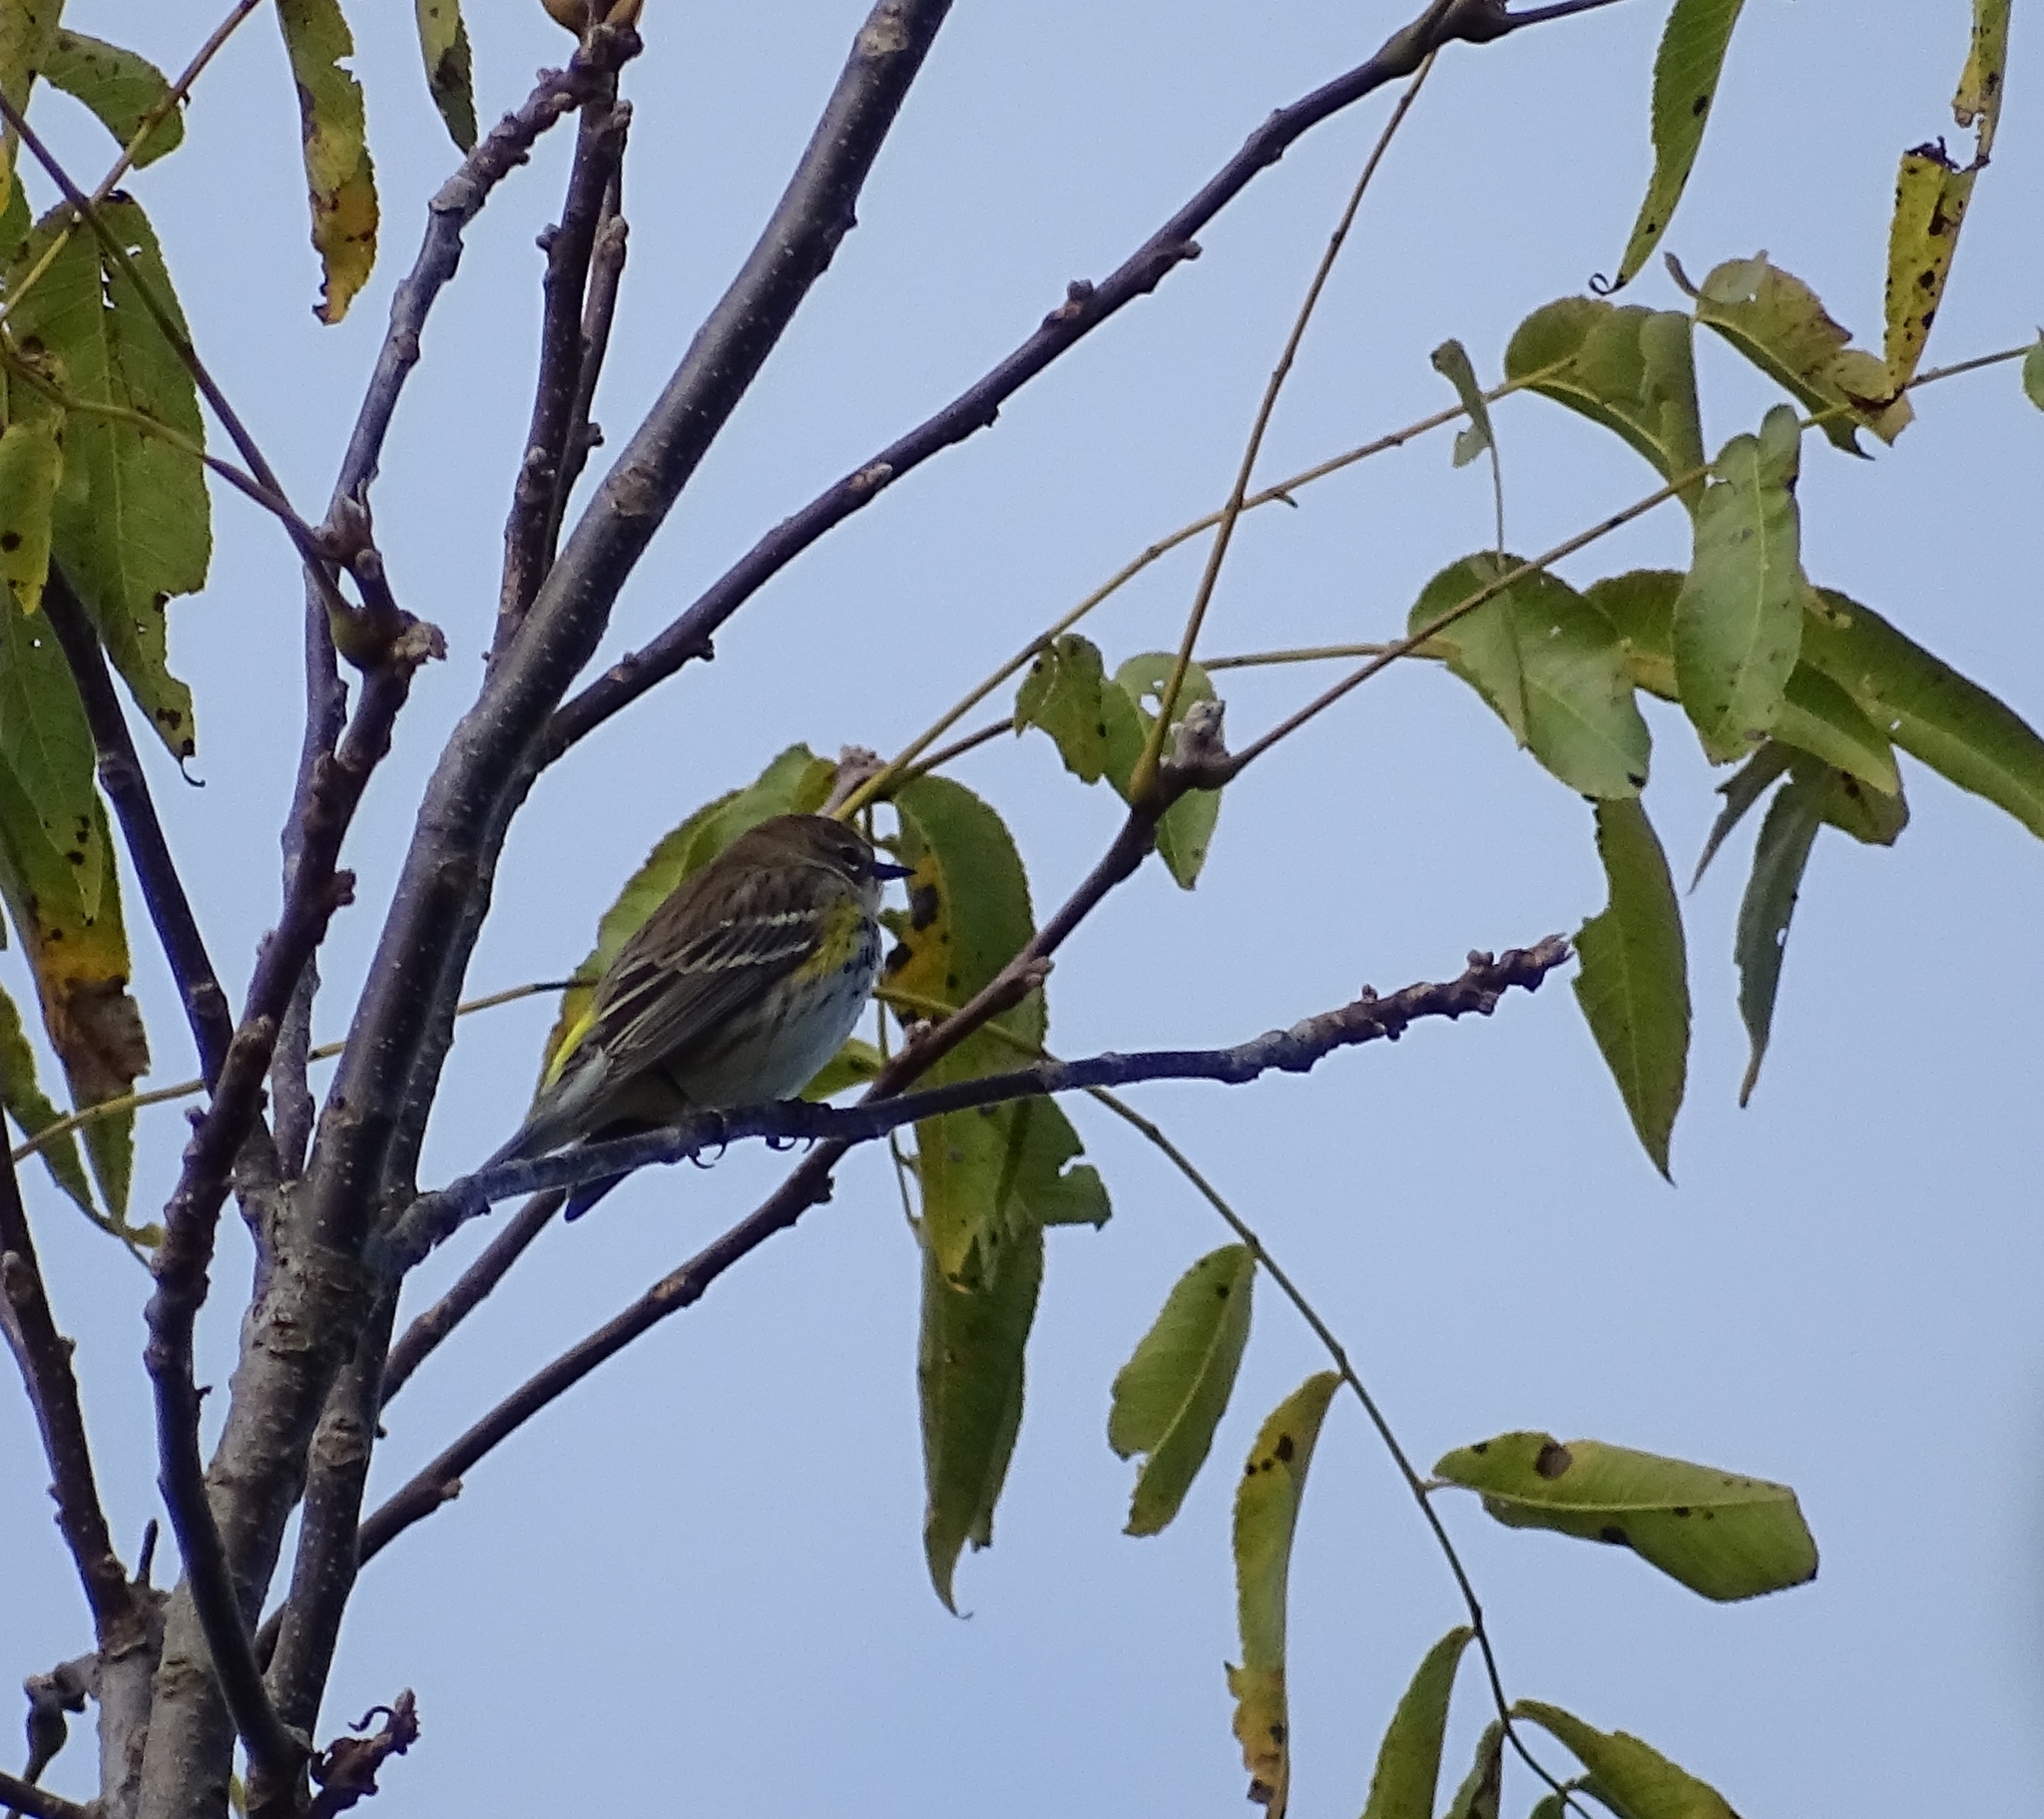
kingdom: Animalia
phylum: Chordata
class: Aves
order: Passeriformes
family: Parulidae
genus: Setophaga
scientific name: Setophaga coronata
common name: Myrtle warbler
